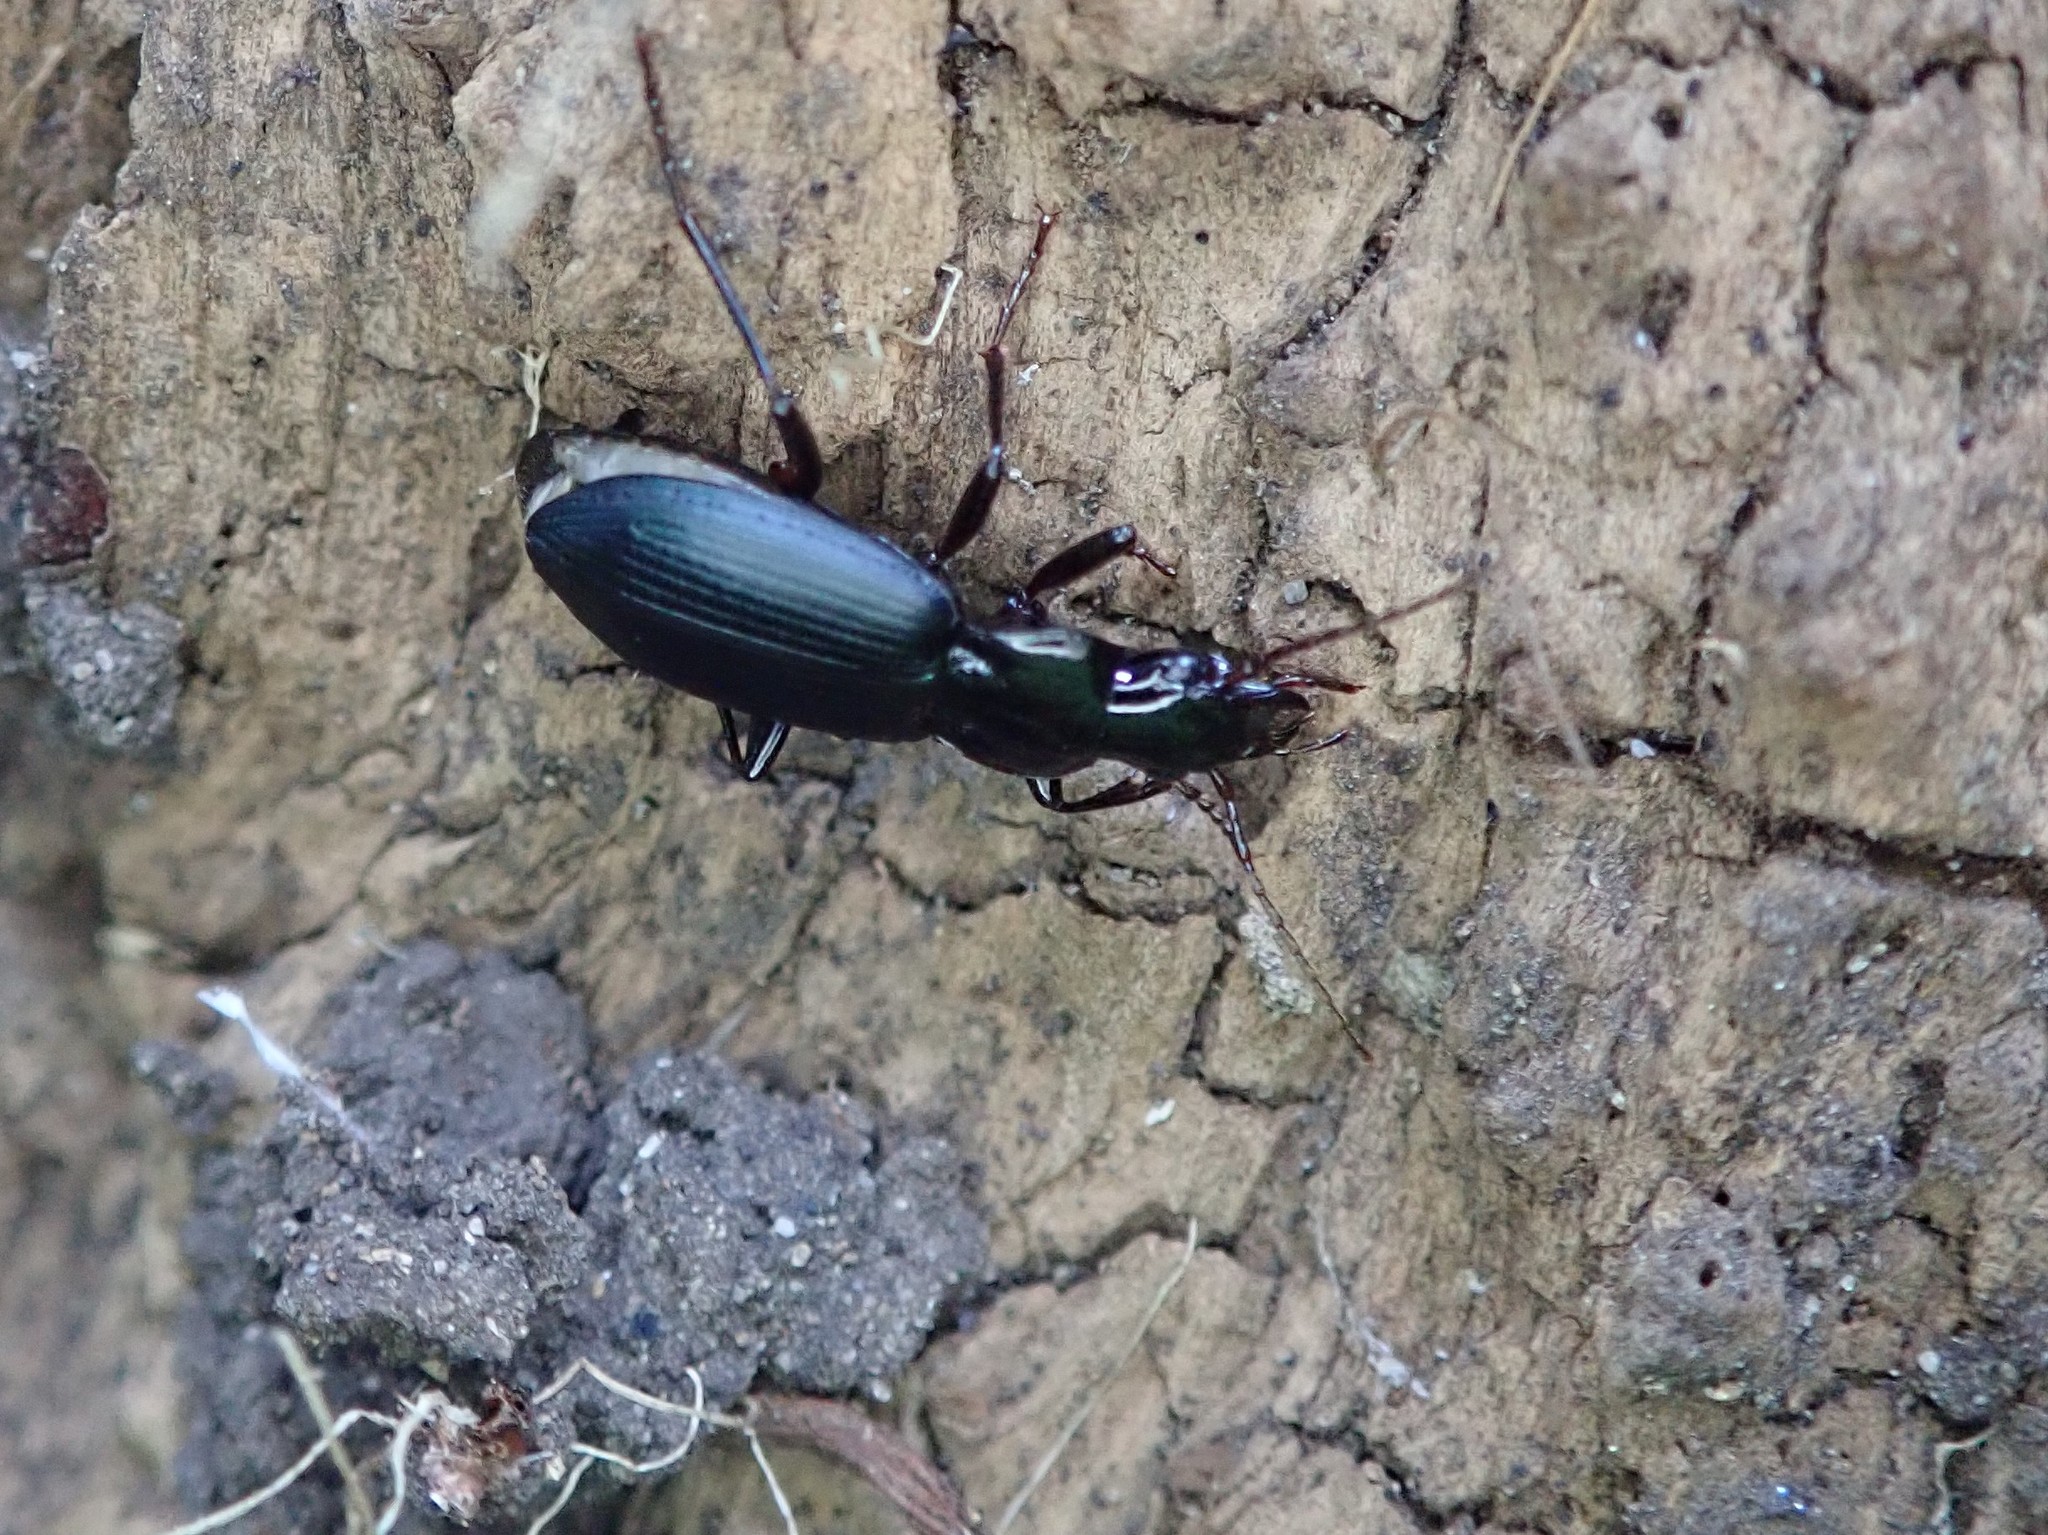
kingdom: Animalia
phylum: Arthropoda
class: Insecta
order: Coleoptera
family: Carabidae
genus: Laemostenus
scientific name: Laemostenus complanatus
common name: Cosmopolitan ground beetle
